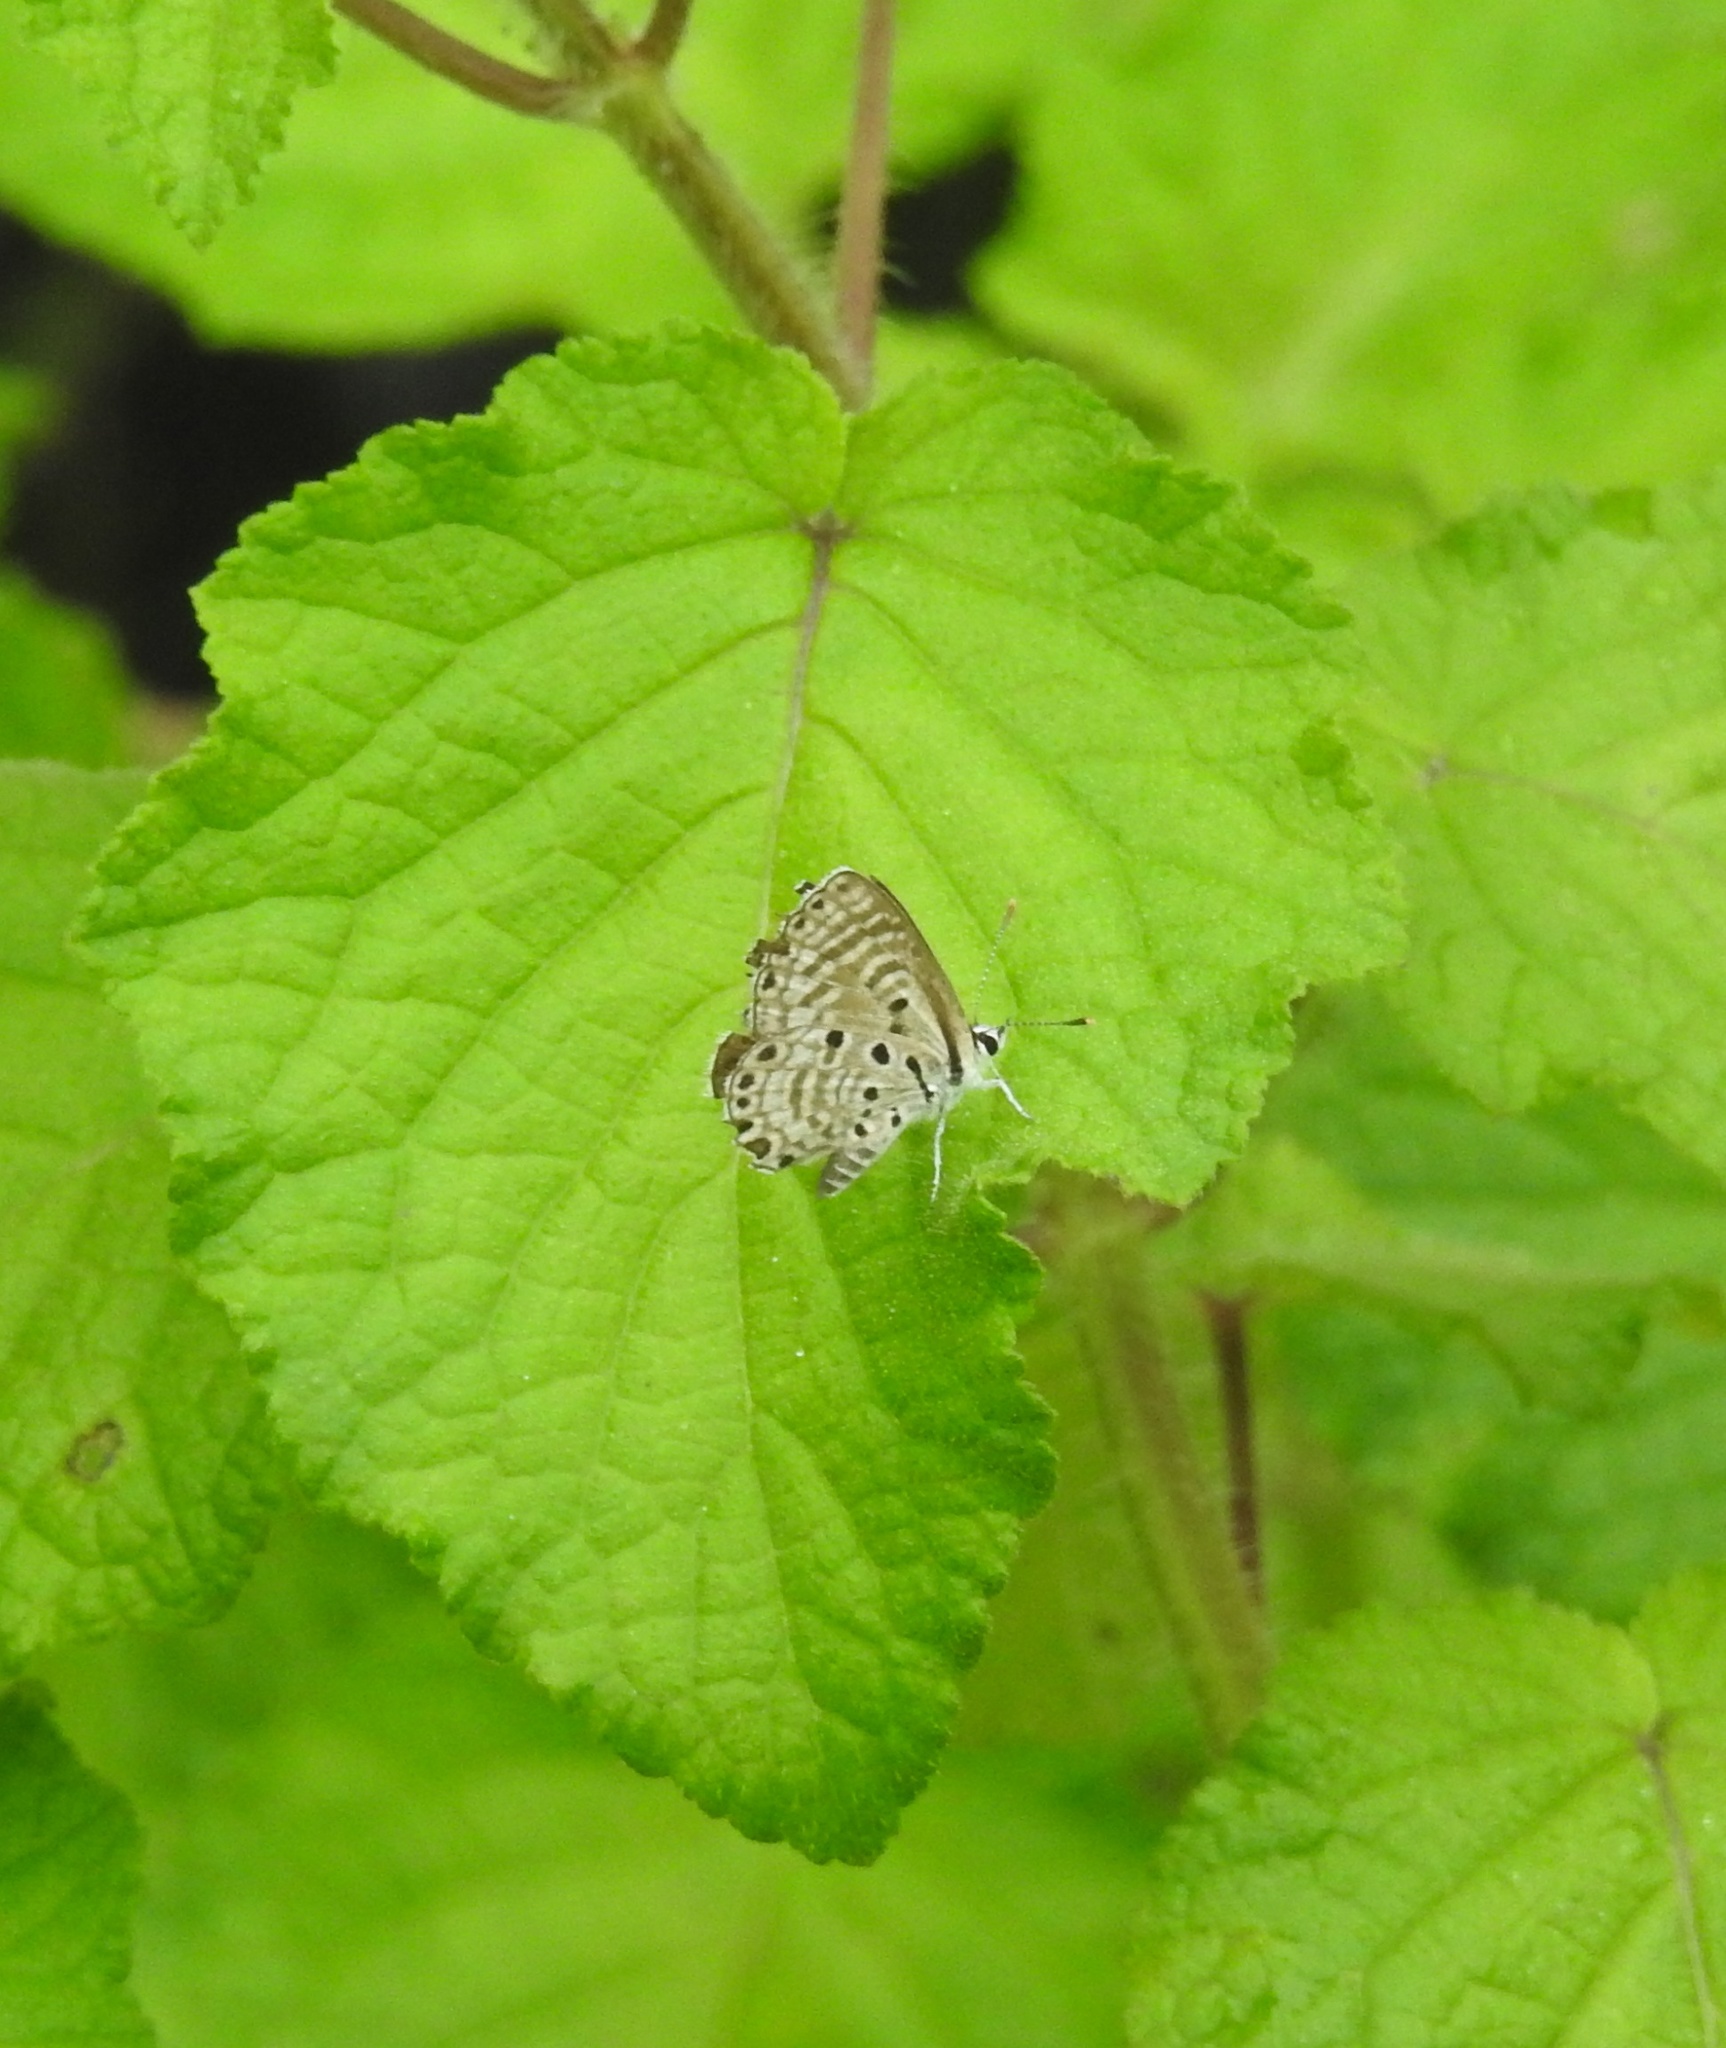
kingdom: Animalia
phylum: Arthropoda
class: Insecta
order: Lepidoptera
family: Lycaenidae
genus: Azanus
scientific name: Azanus jesous
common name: African babul blue
